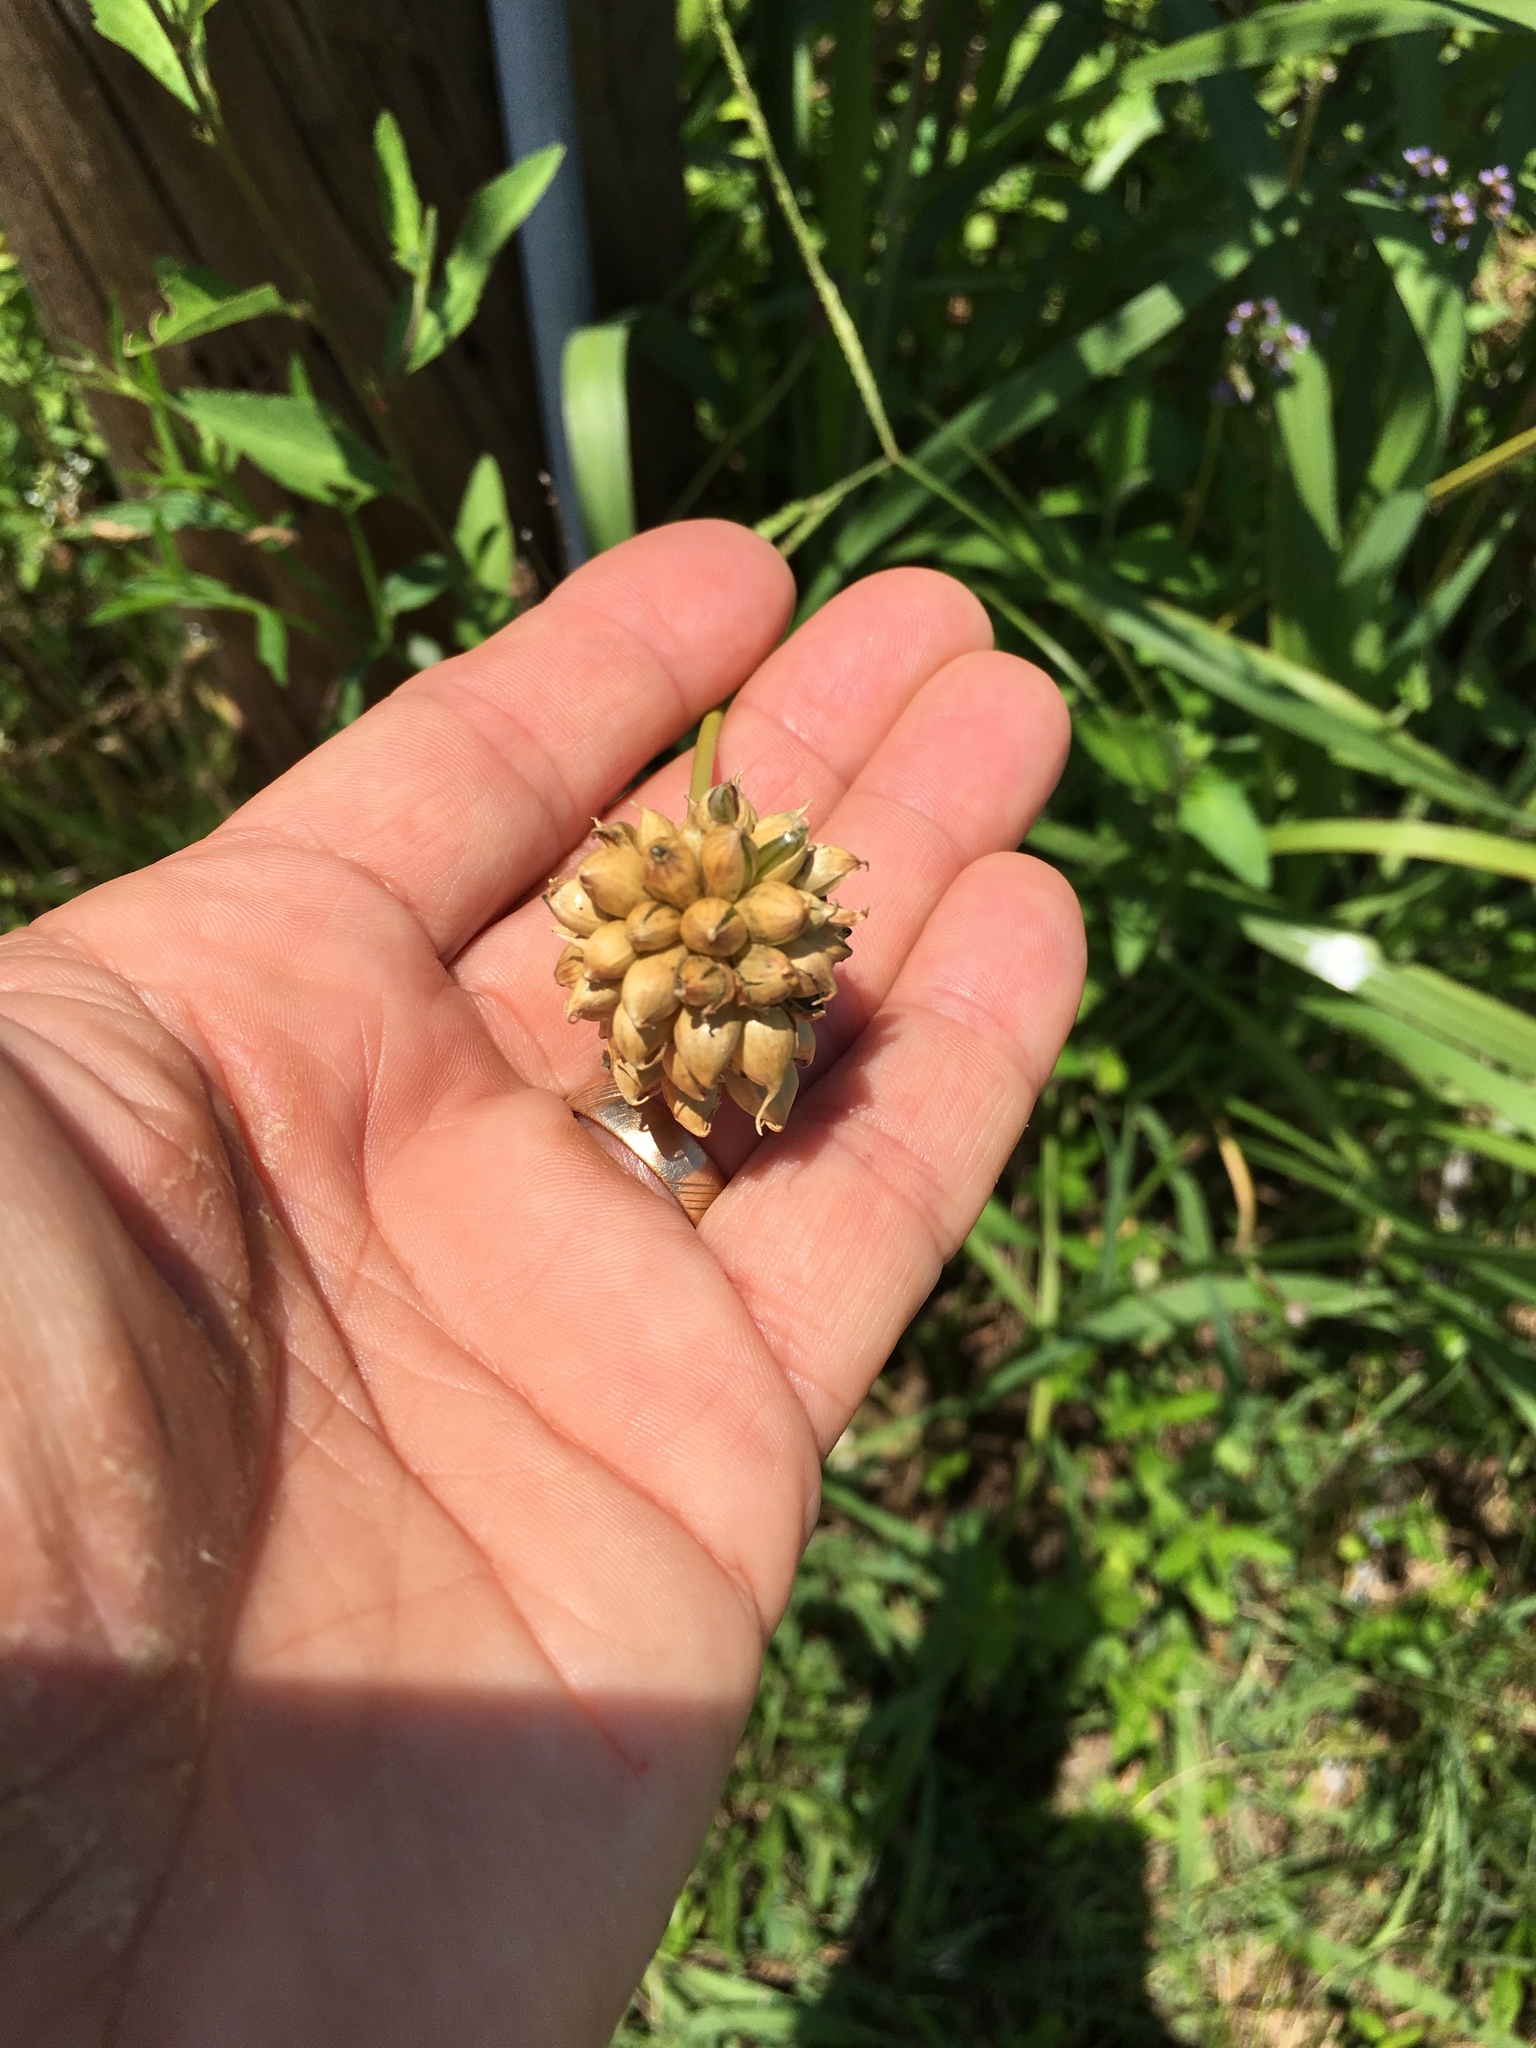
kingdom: Plantae
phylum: Tracheophyta
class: Liliopsida
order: Asparagales
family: Amaryllidaceae
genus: Allium
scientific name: Allium vineale
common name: Crow garlic
